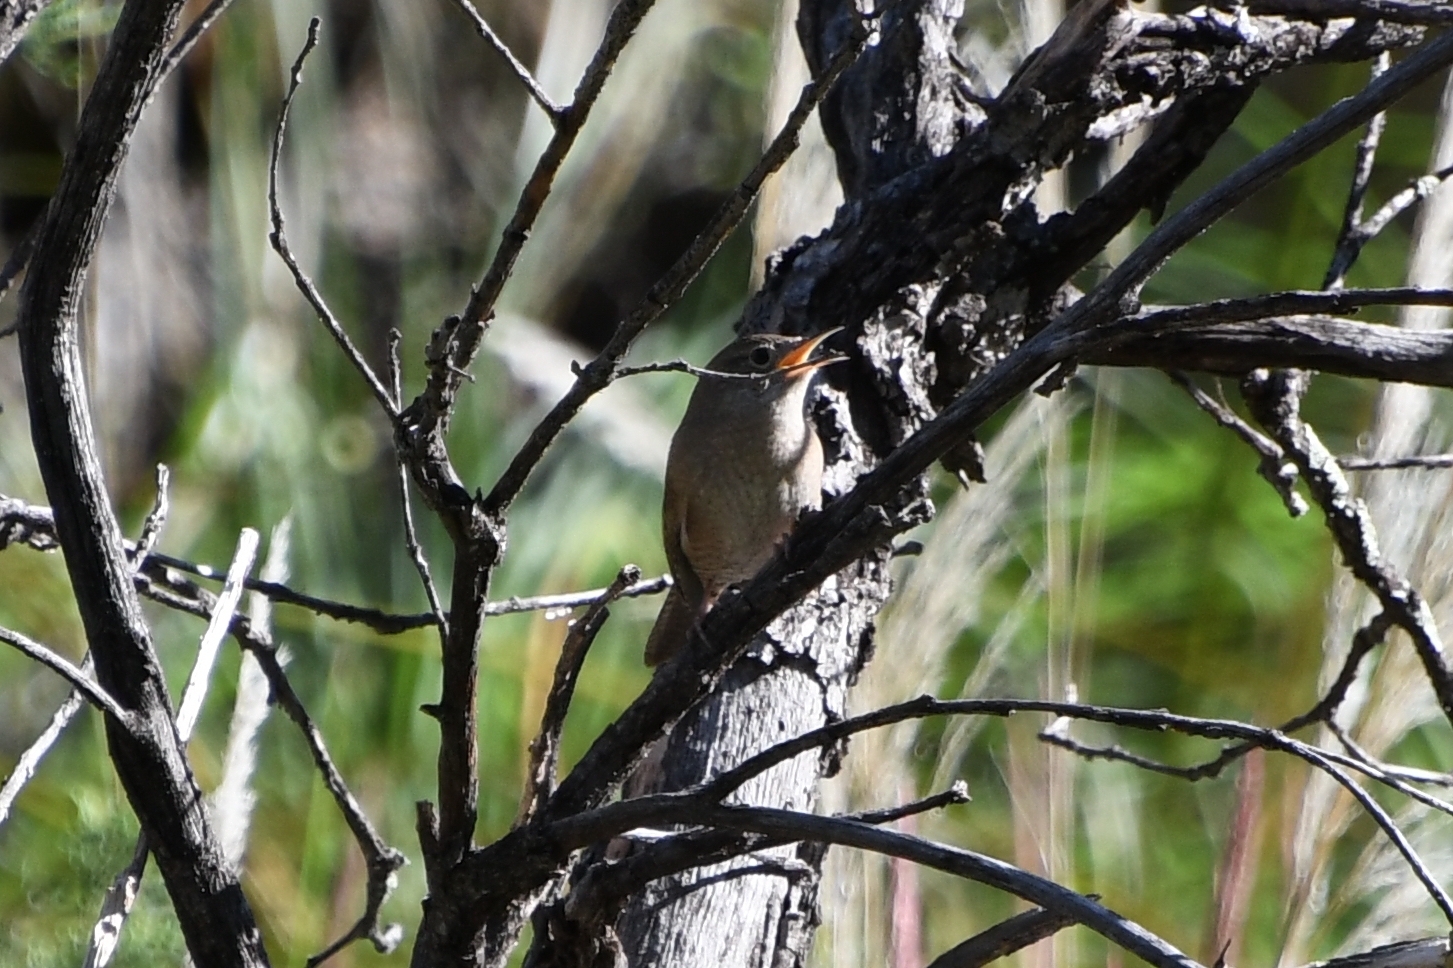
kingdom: Animalia
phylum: Chordata
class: Aves
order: Passeriformes
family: Troglodytidae
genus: Troglodytes
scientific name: Troglodytes aedon
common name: House wren
